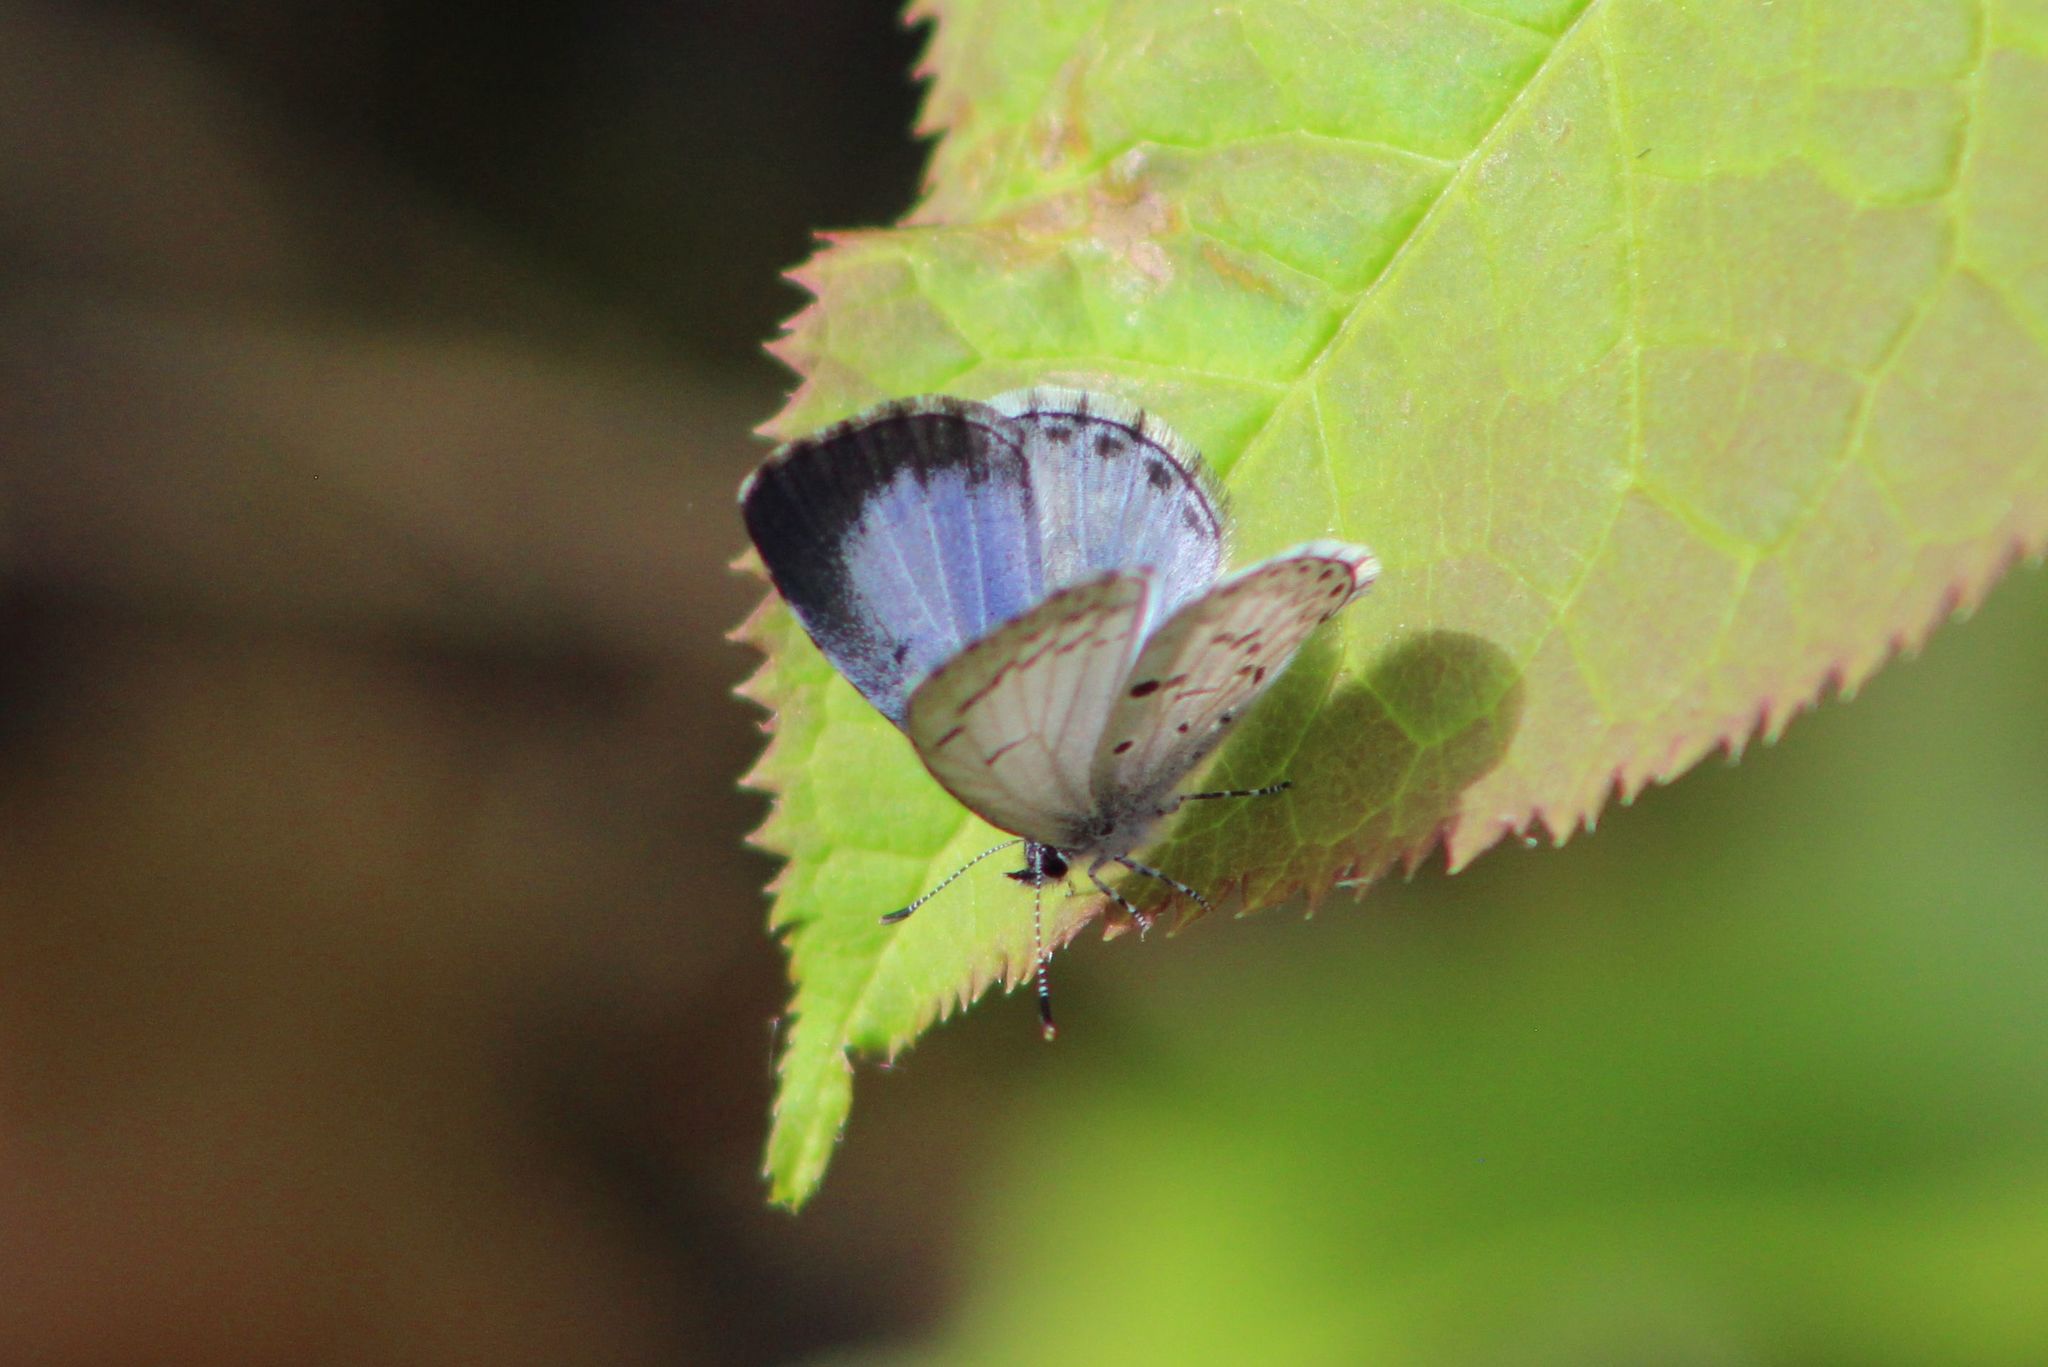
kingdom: Animalia
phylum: Arthropoda
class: Insecta
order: Lepidoptera
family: Lycaenidae
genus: Celastrina
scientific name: Celastrina lucia
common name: Lucia azure
